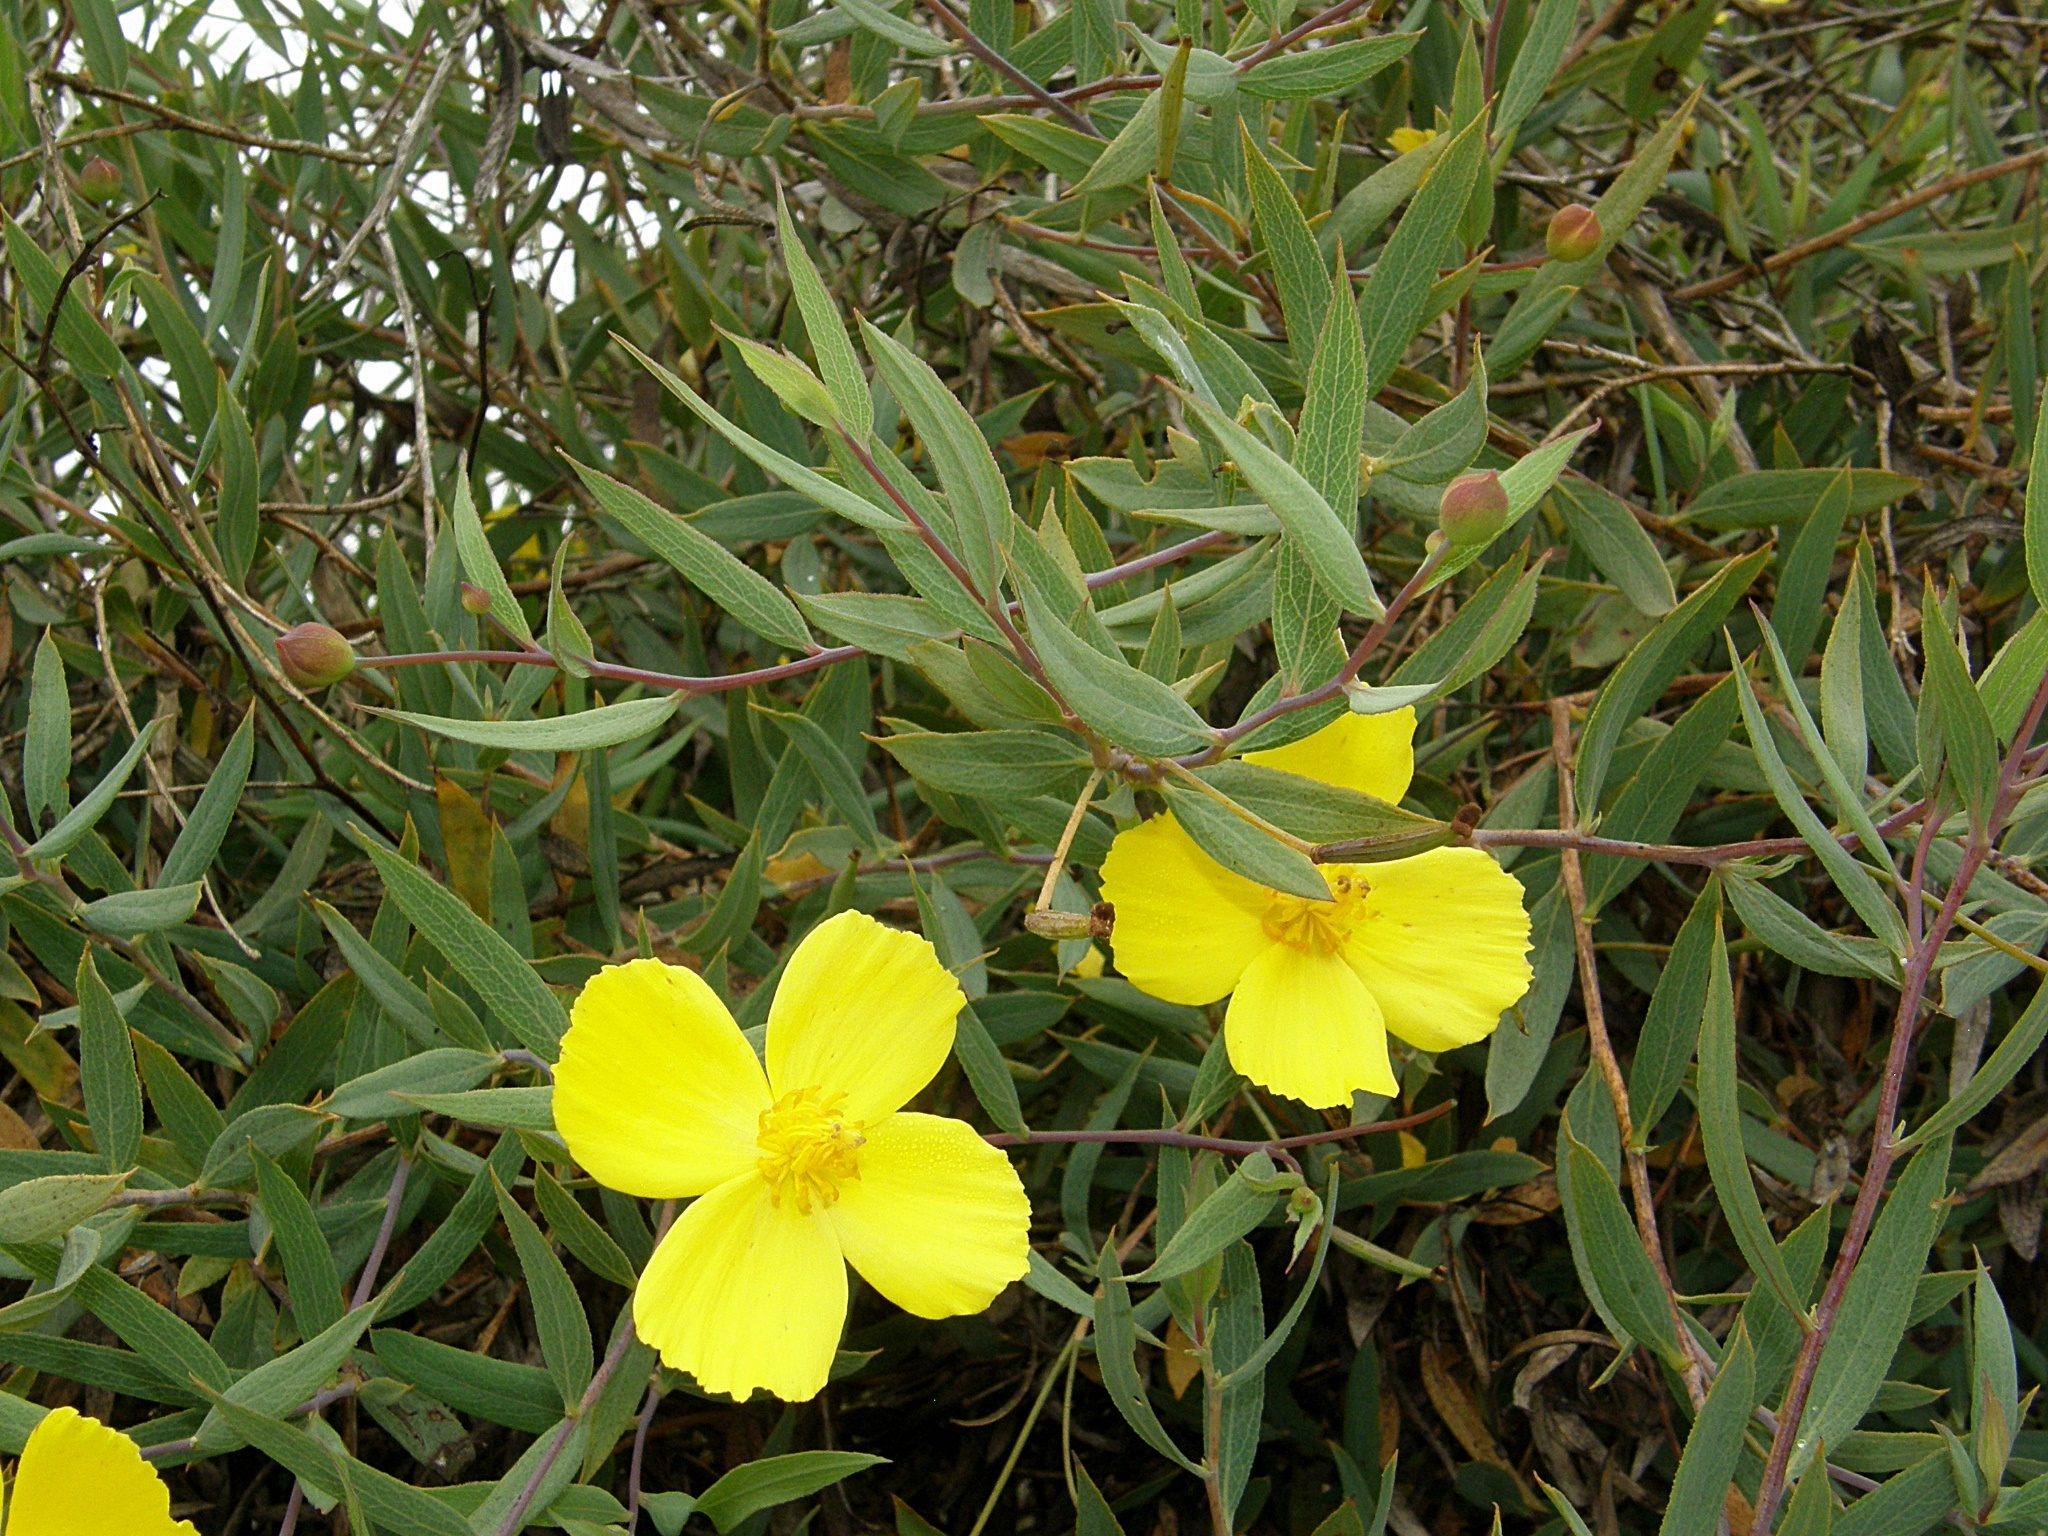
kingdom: Plantae
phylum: Tracheophyta
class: Magnoliopsida
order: Ranunculales
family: Papaveraceae
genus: Dendromecon
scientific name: Dendromecon rigida
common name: Tree poppy
